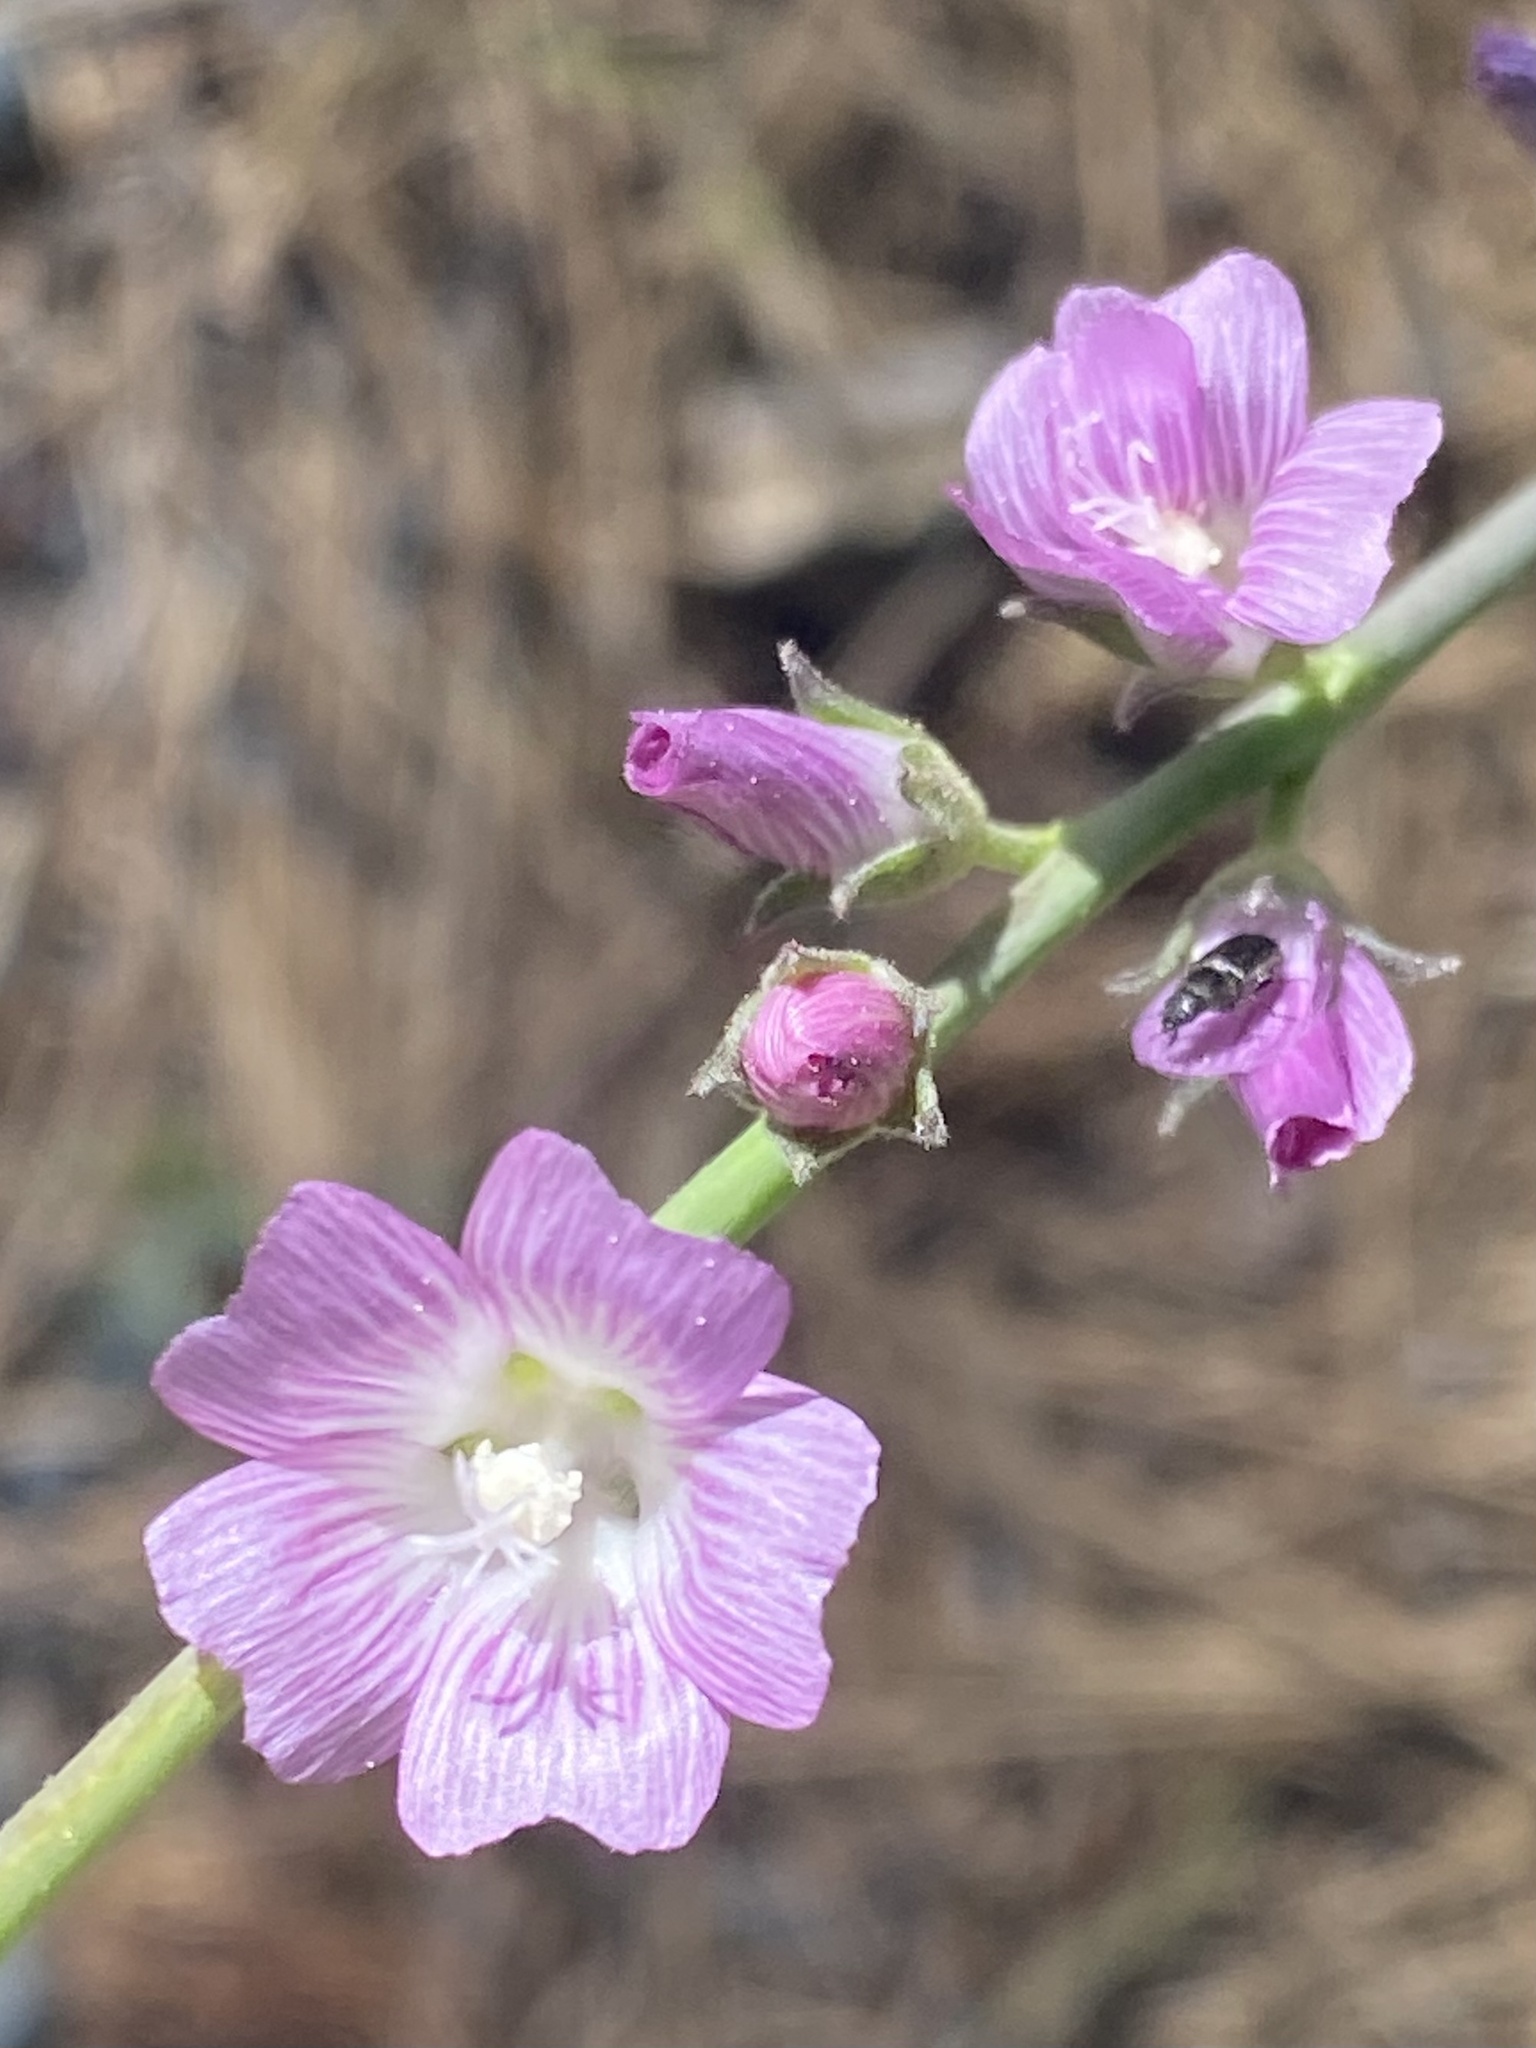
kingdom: Plantae
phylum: Tracheophyta
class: Magnoliopsida
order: Malvales
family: Malvaceae
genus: Sidalcea
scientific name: Sidalcea sparsifolia
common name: Southern checkerbloom
